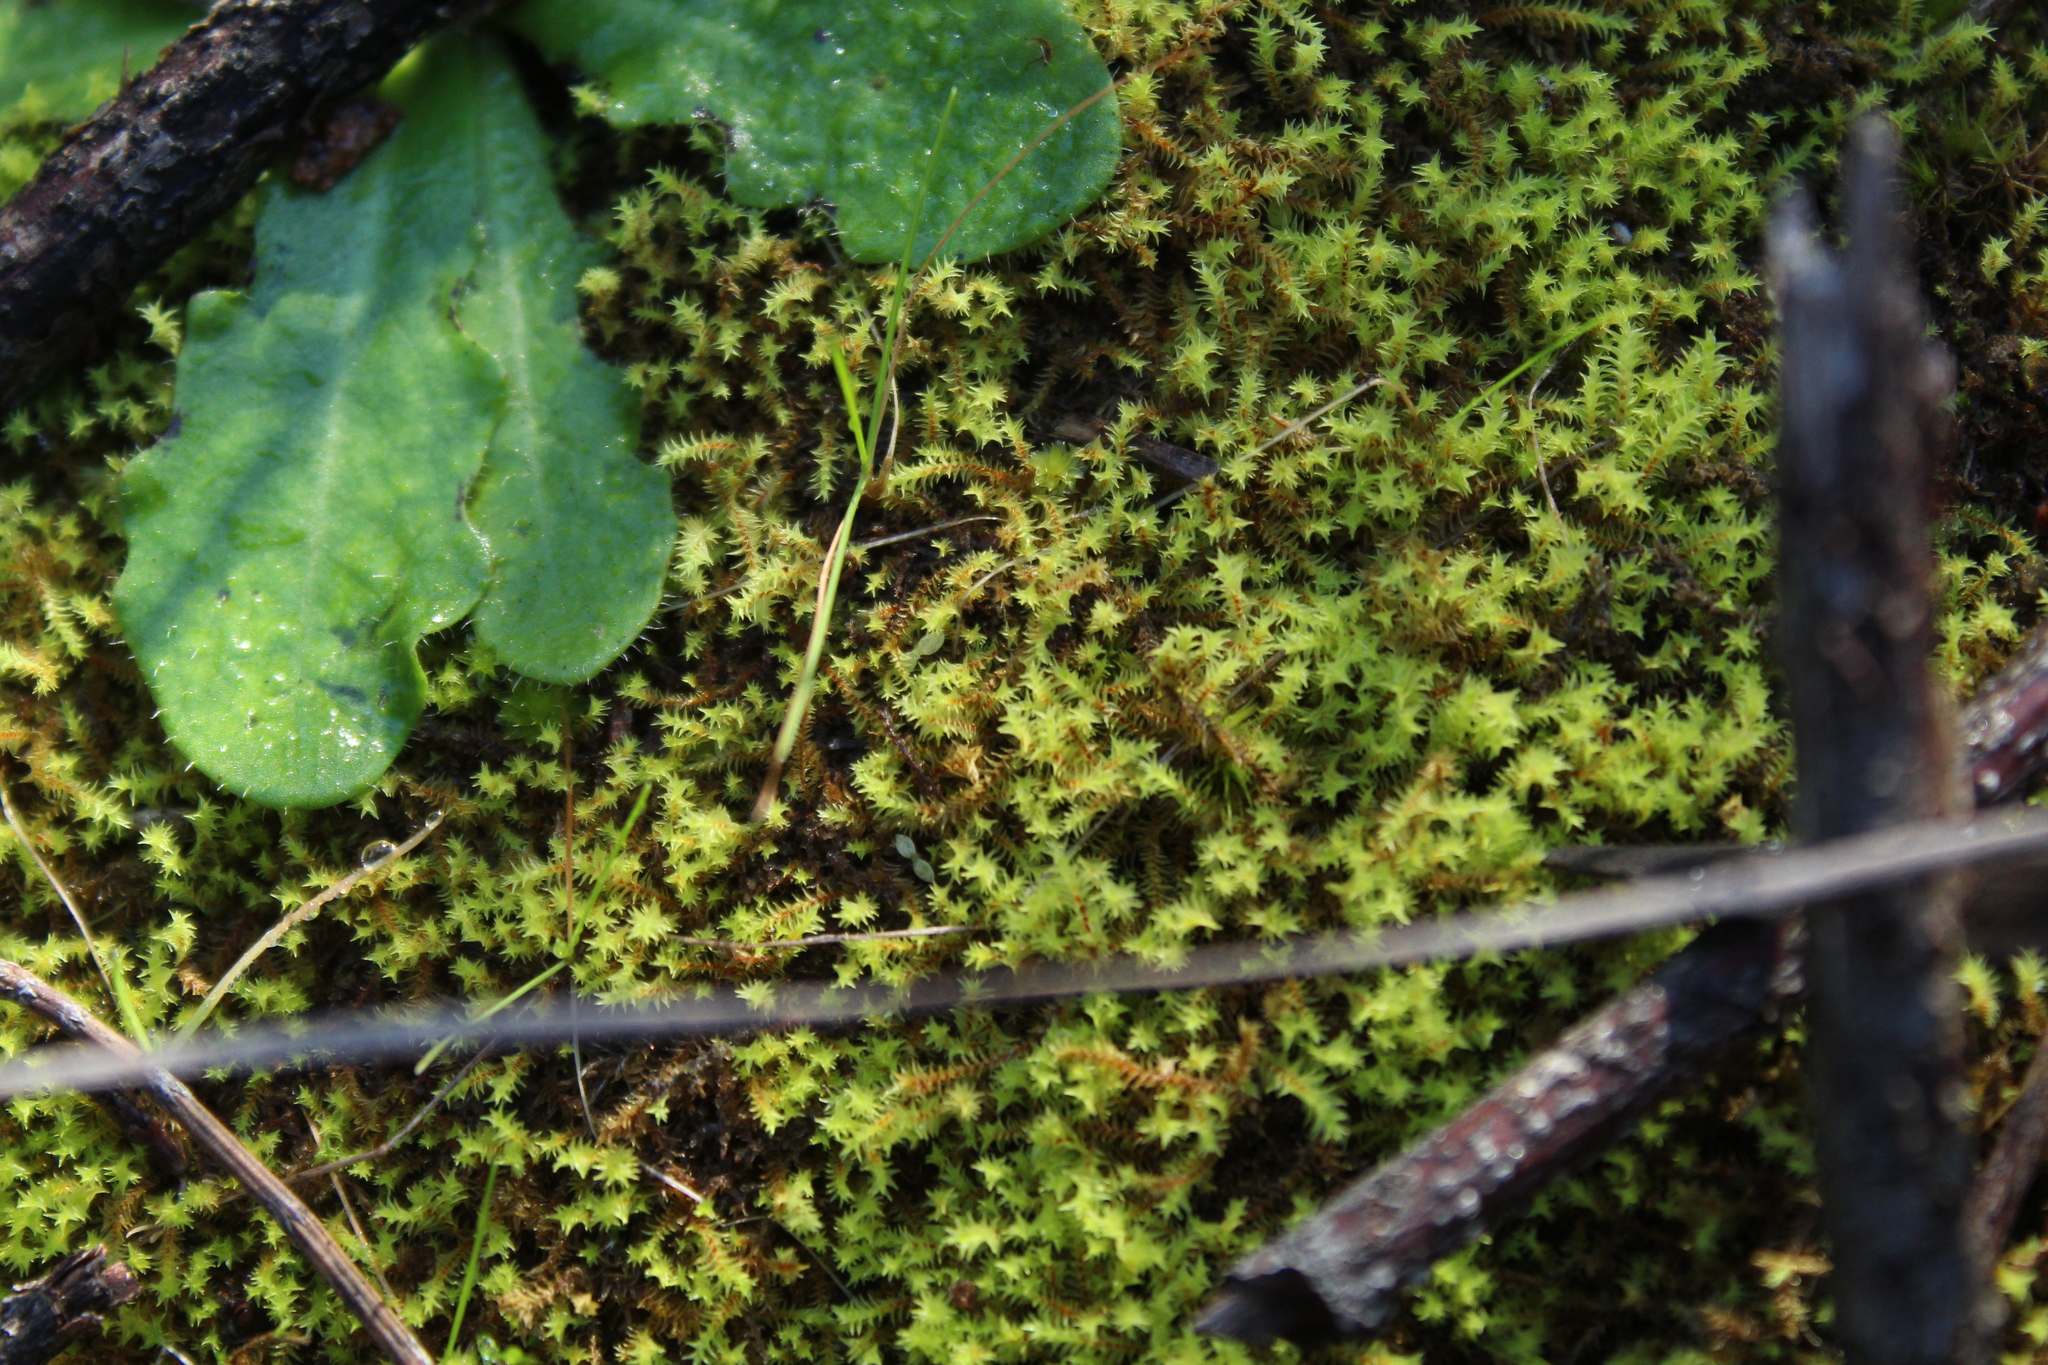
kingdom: Plantae
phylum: Bryophyta
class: Bryopsida
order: Pottiales
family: Pottiaceae
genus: Triquetrella
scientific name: Triquetrella papillata
